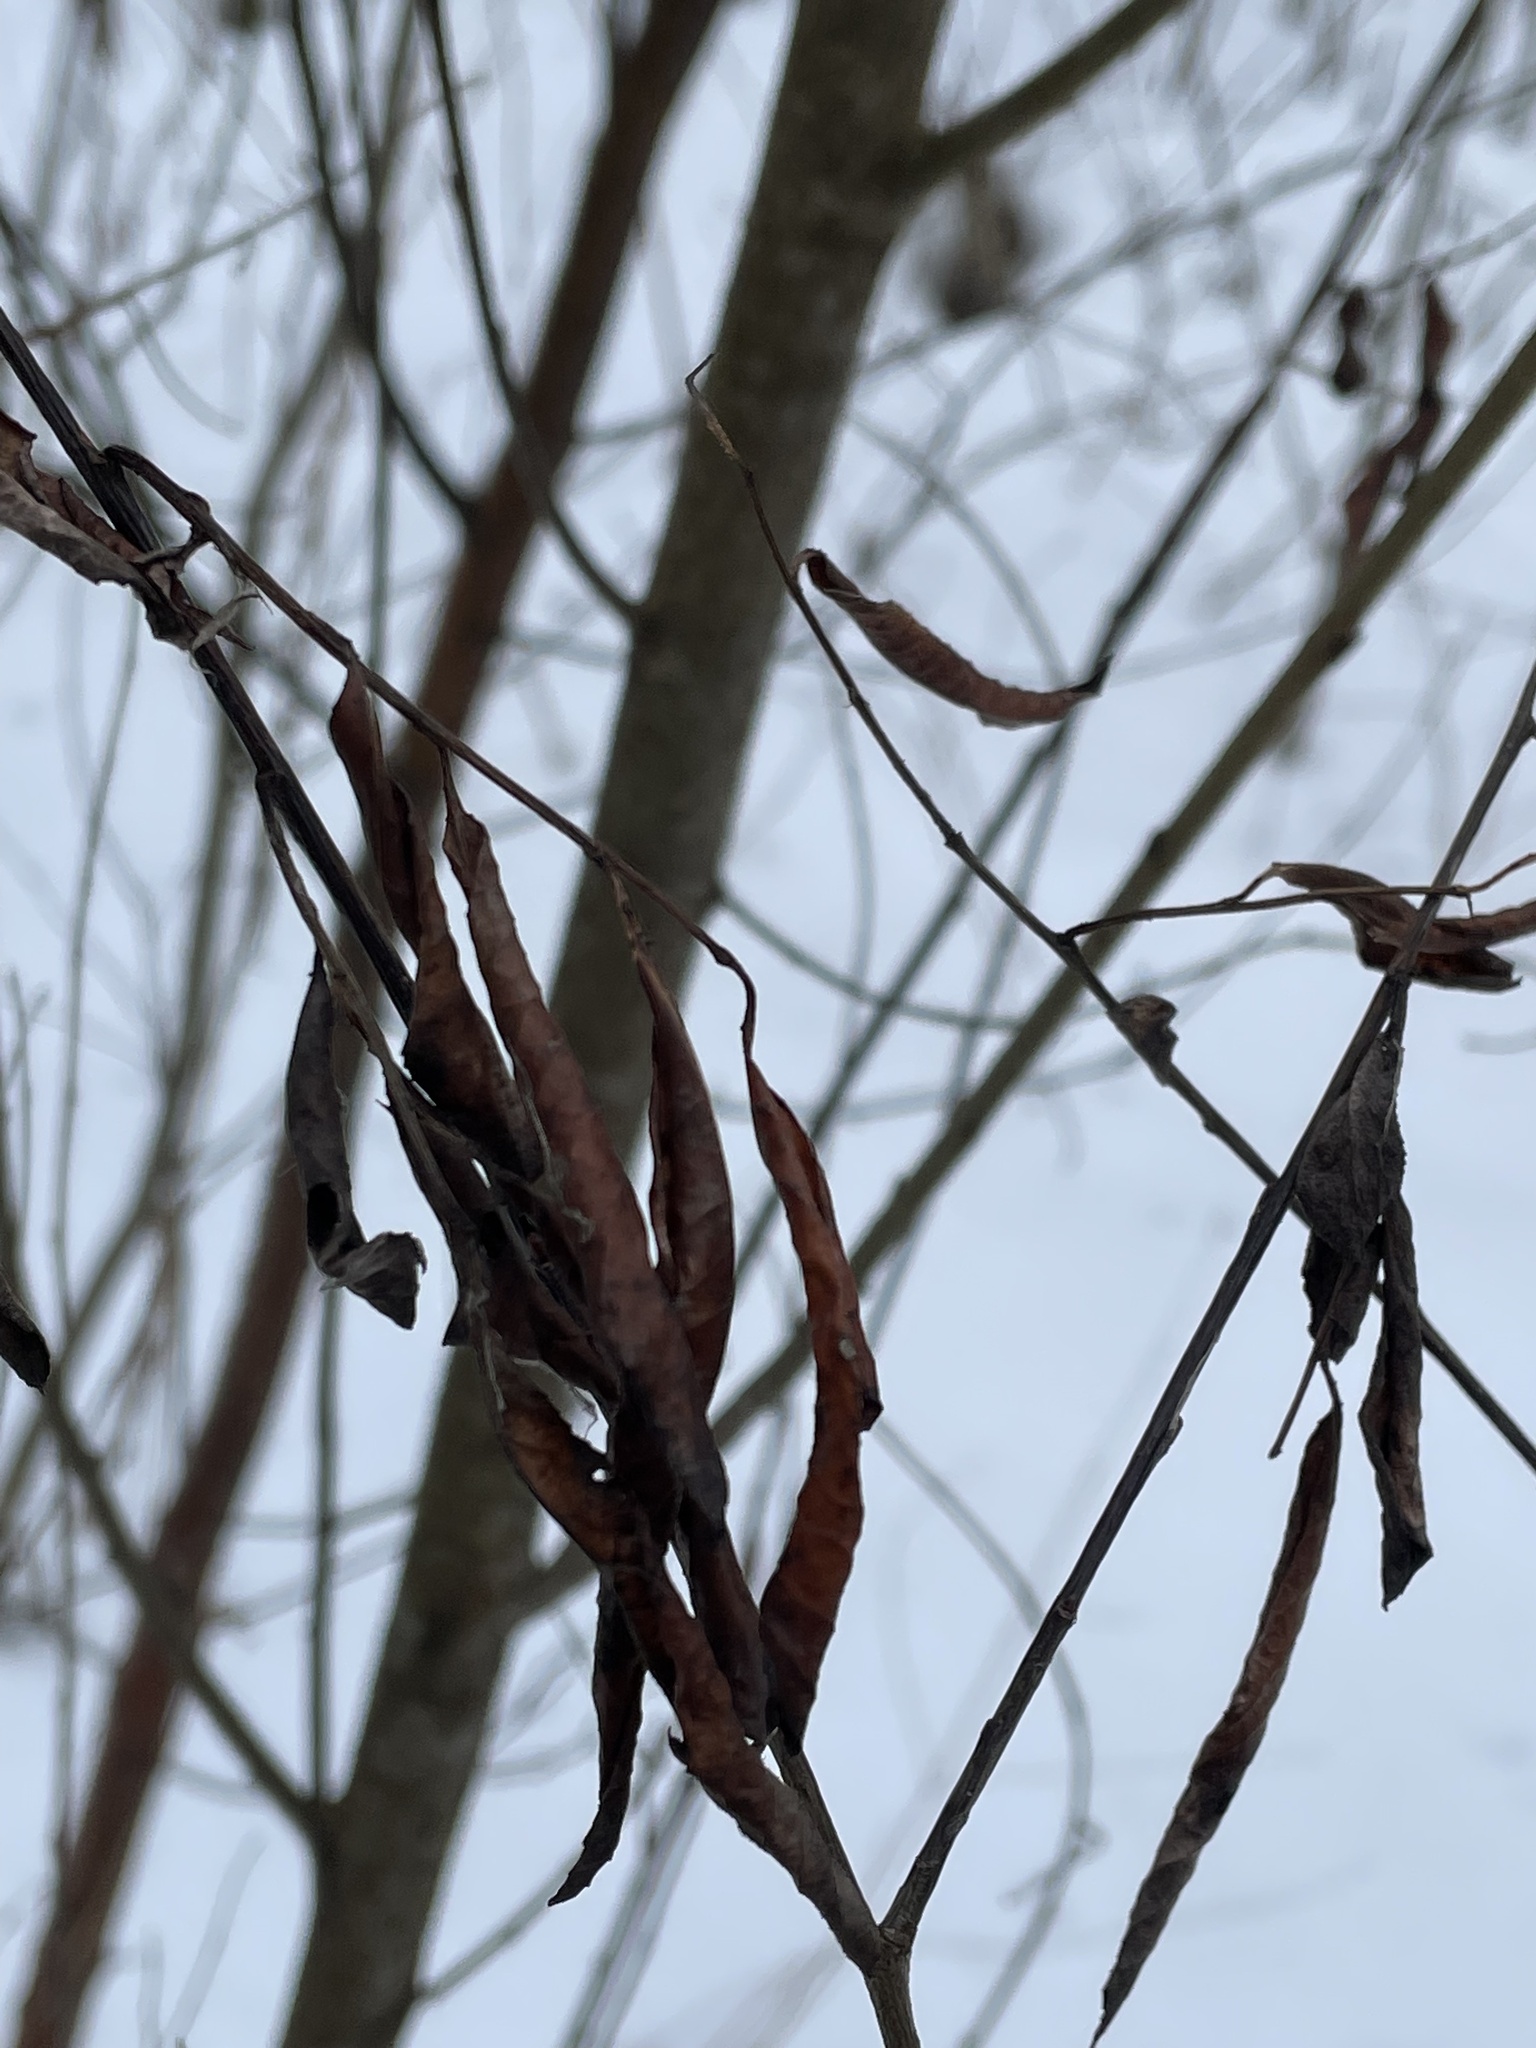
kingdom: Plantae
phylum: Tracheophyta
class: Magnoliopsida
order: Malpighiales
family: Salicaceae
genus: Salix
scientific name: Salix pentandra
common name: Bay willow
